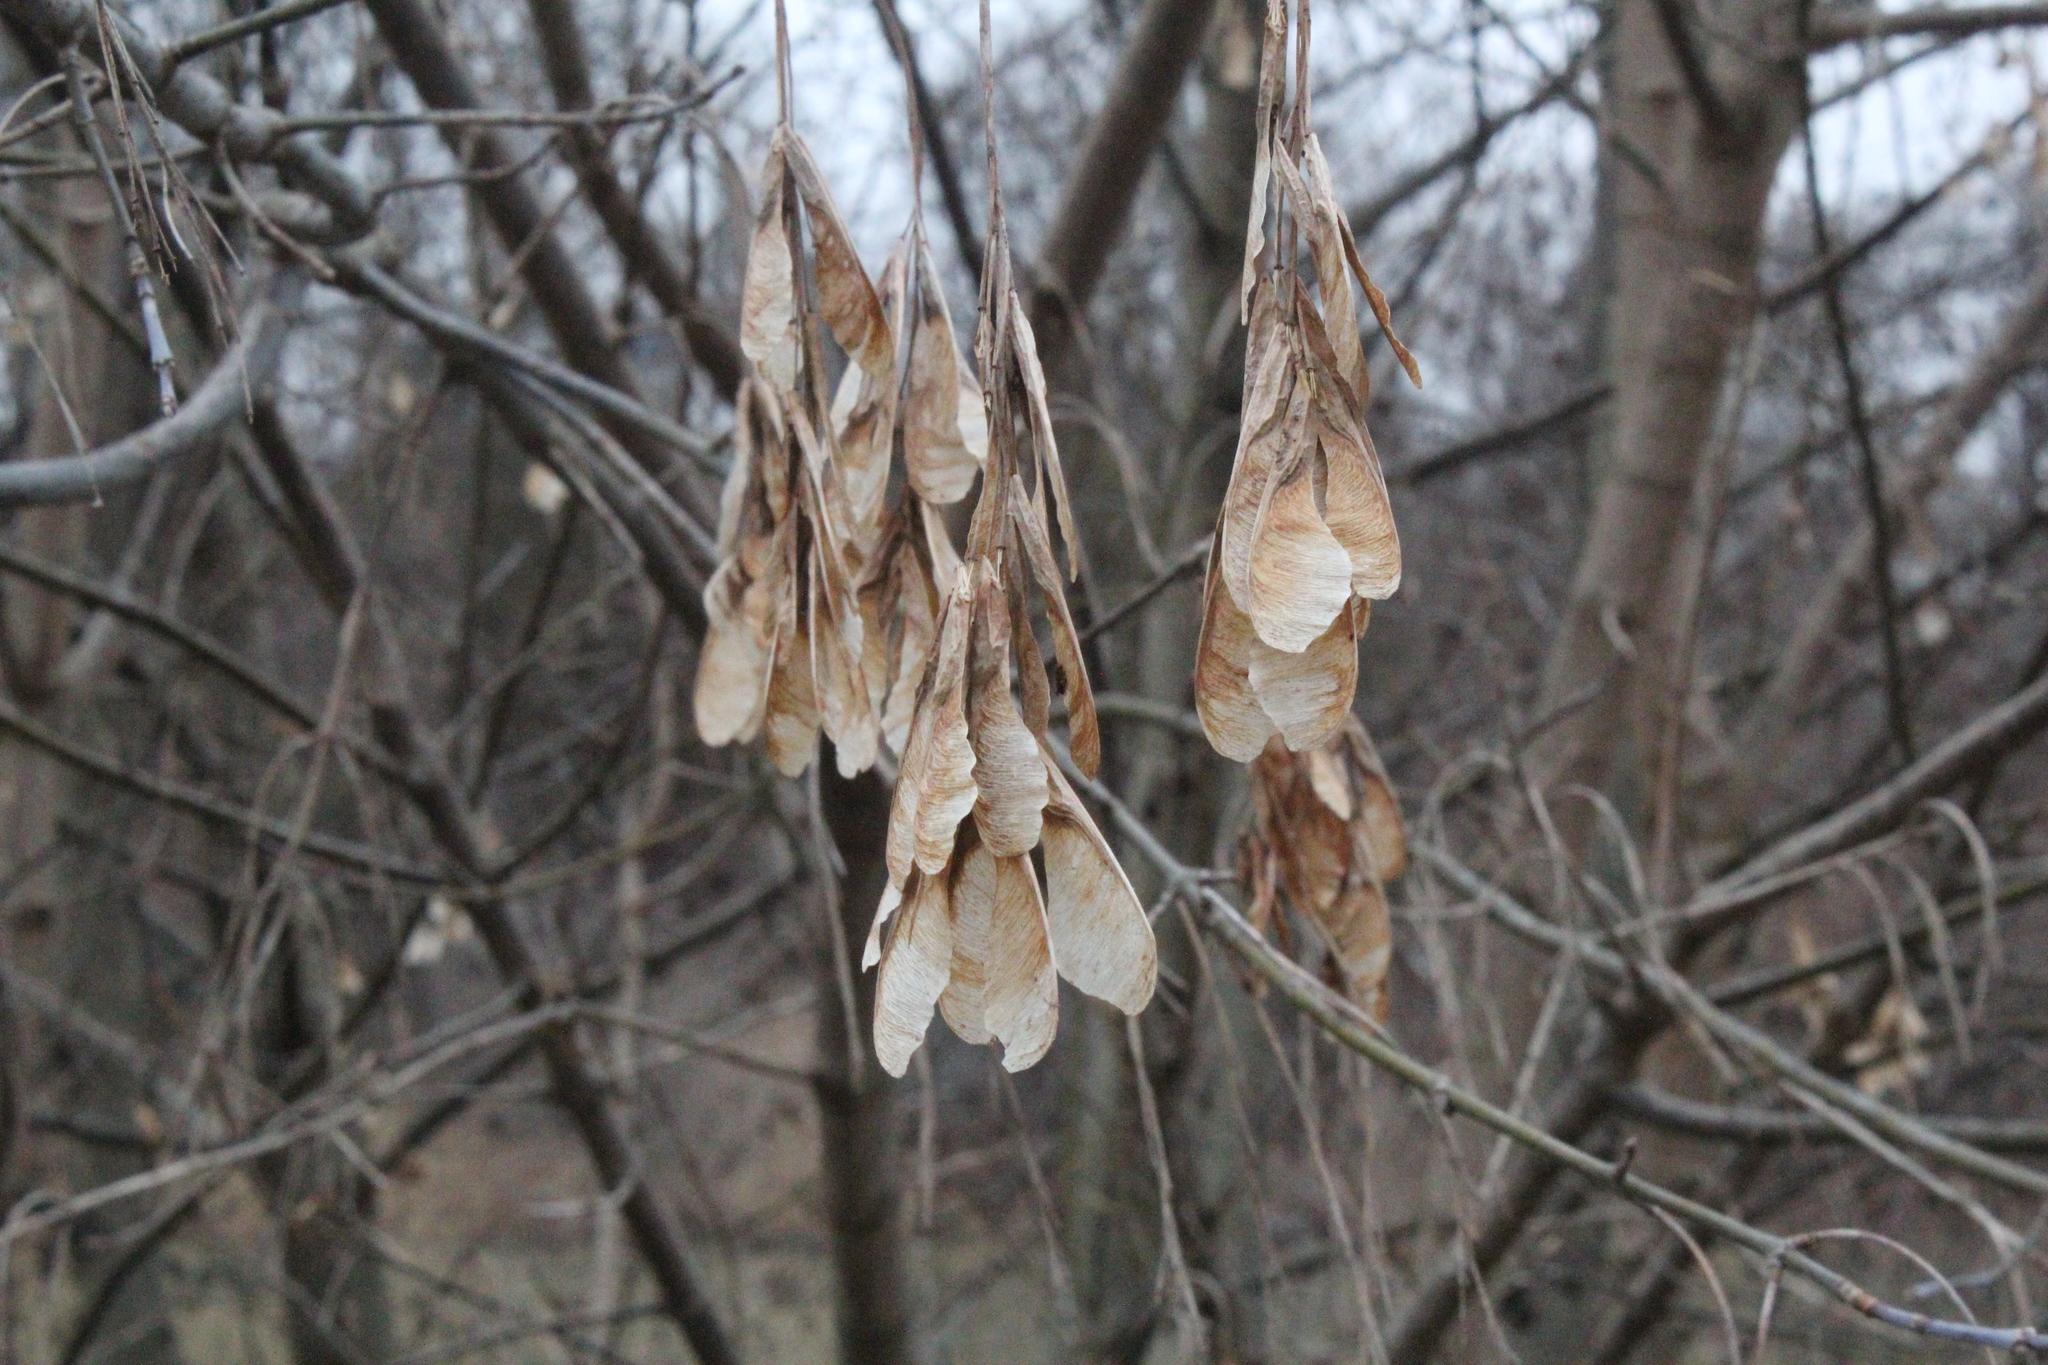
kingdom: Plantae
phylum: Tracheophyta
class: Magnoliopsida
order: Sapindales
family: Sapindaceae
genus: Acer
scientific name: Acer negundo
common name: Ashleaf maple
